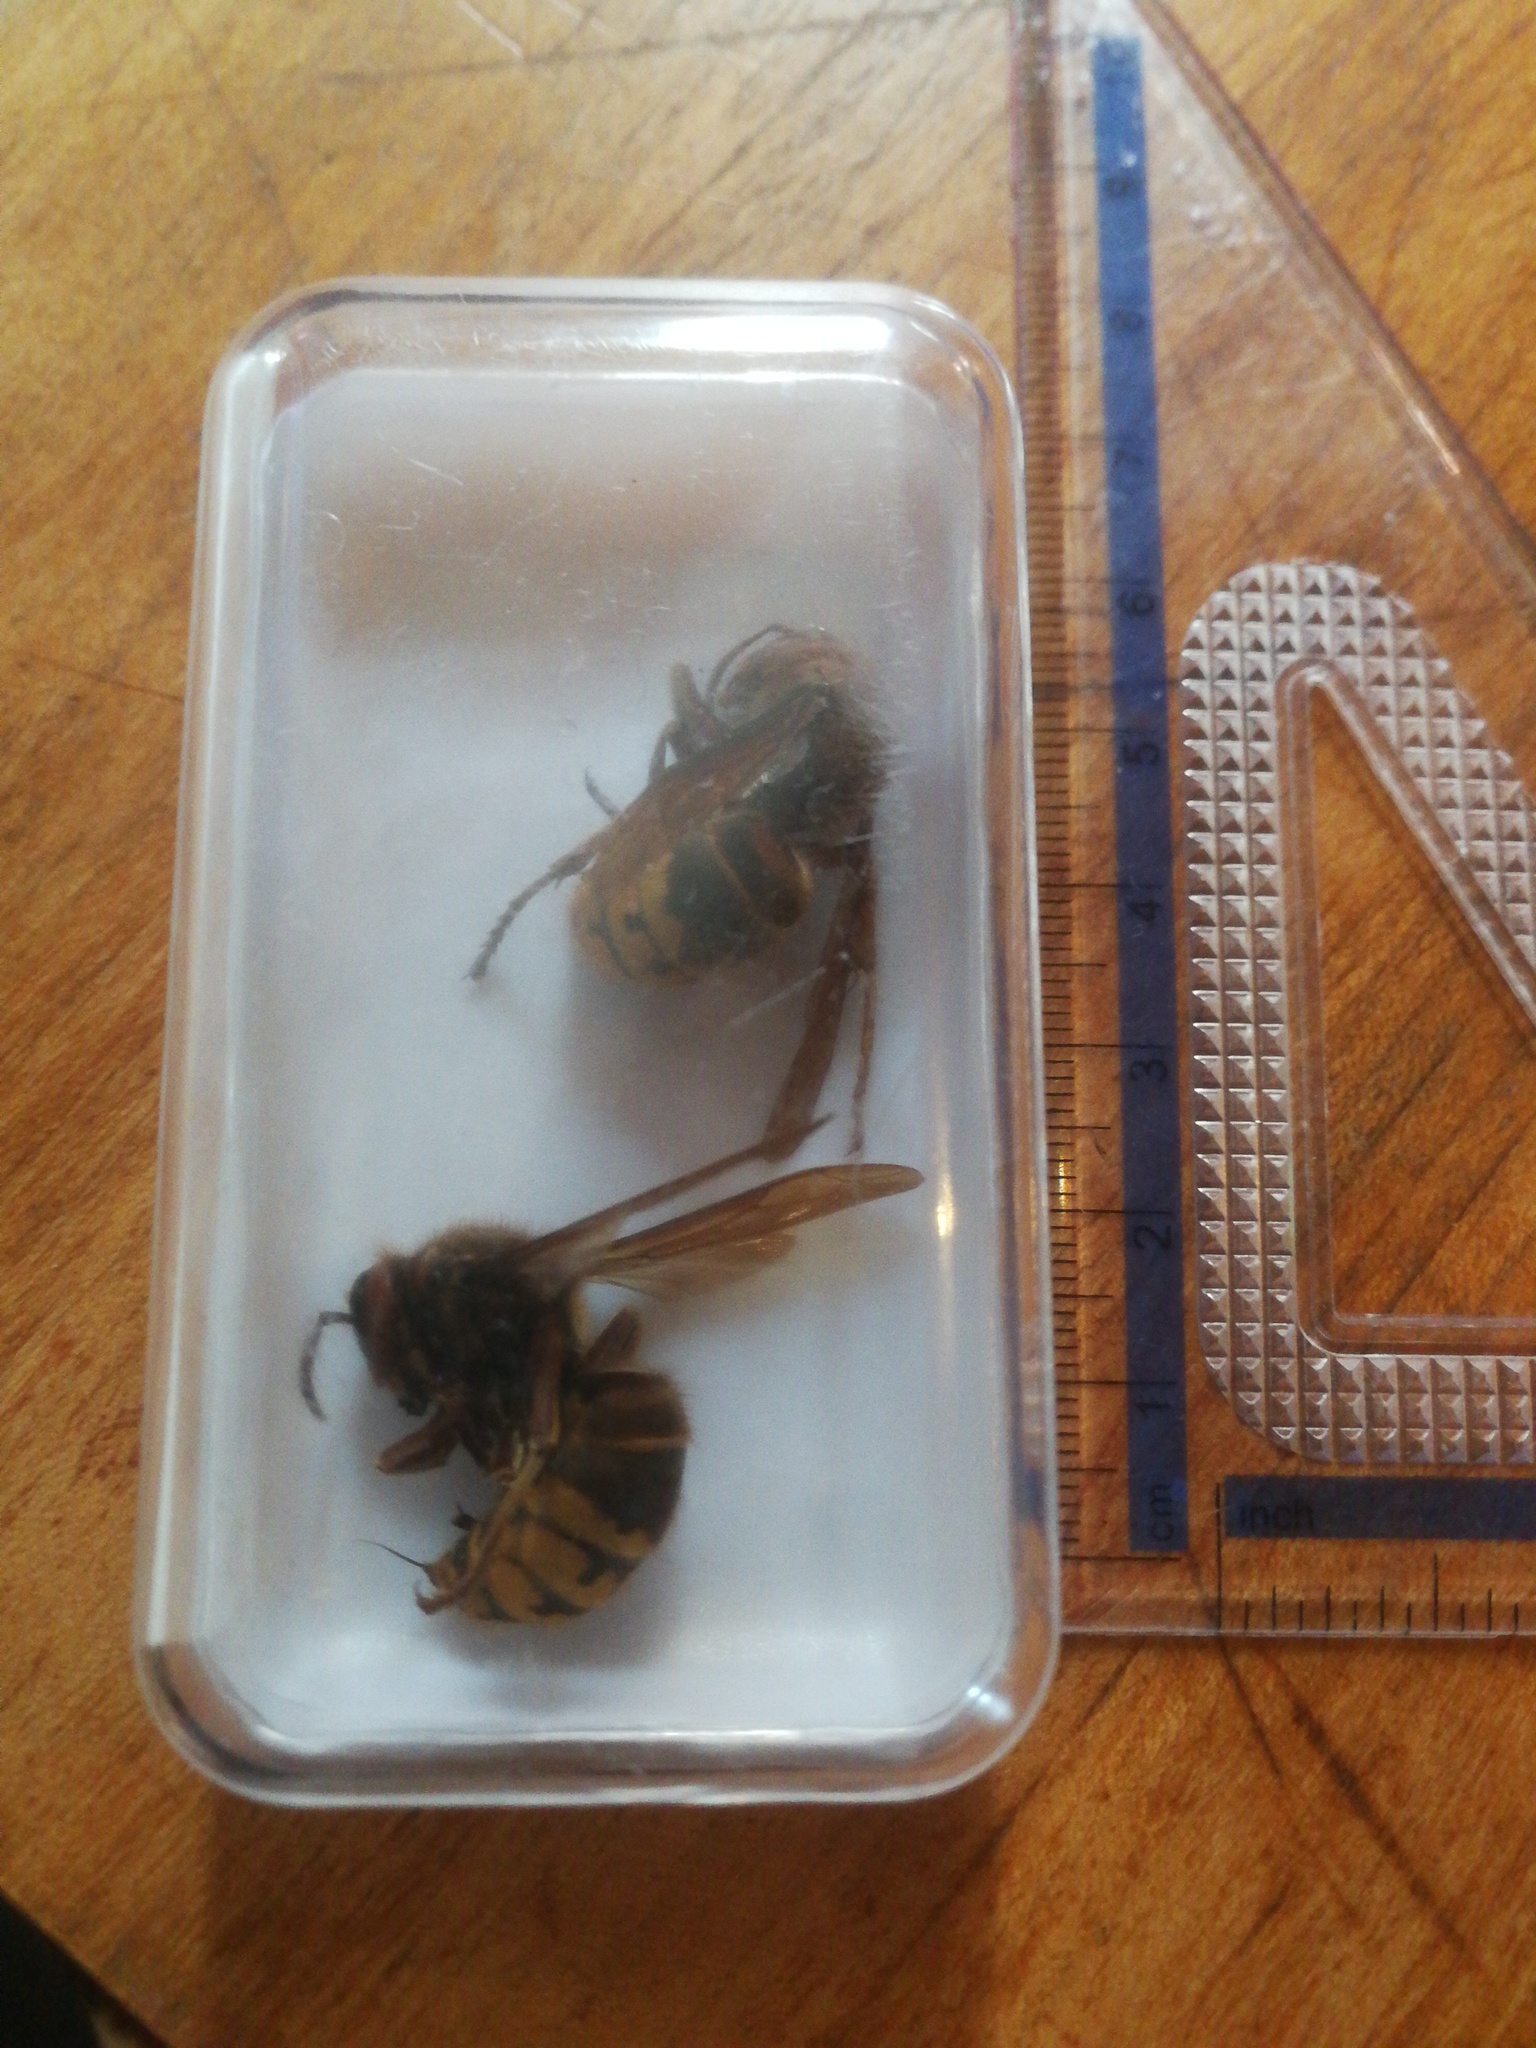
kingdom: Animalia
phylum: Arthropoda
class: Insecta
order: Hymenoptera
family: Vespidae
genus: Vespa
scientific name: Vespa crabro
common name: Hornet
